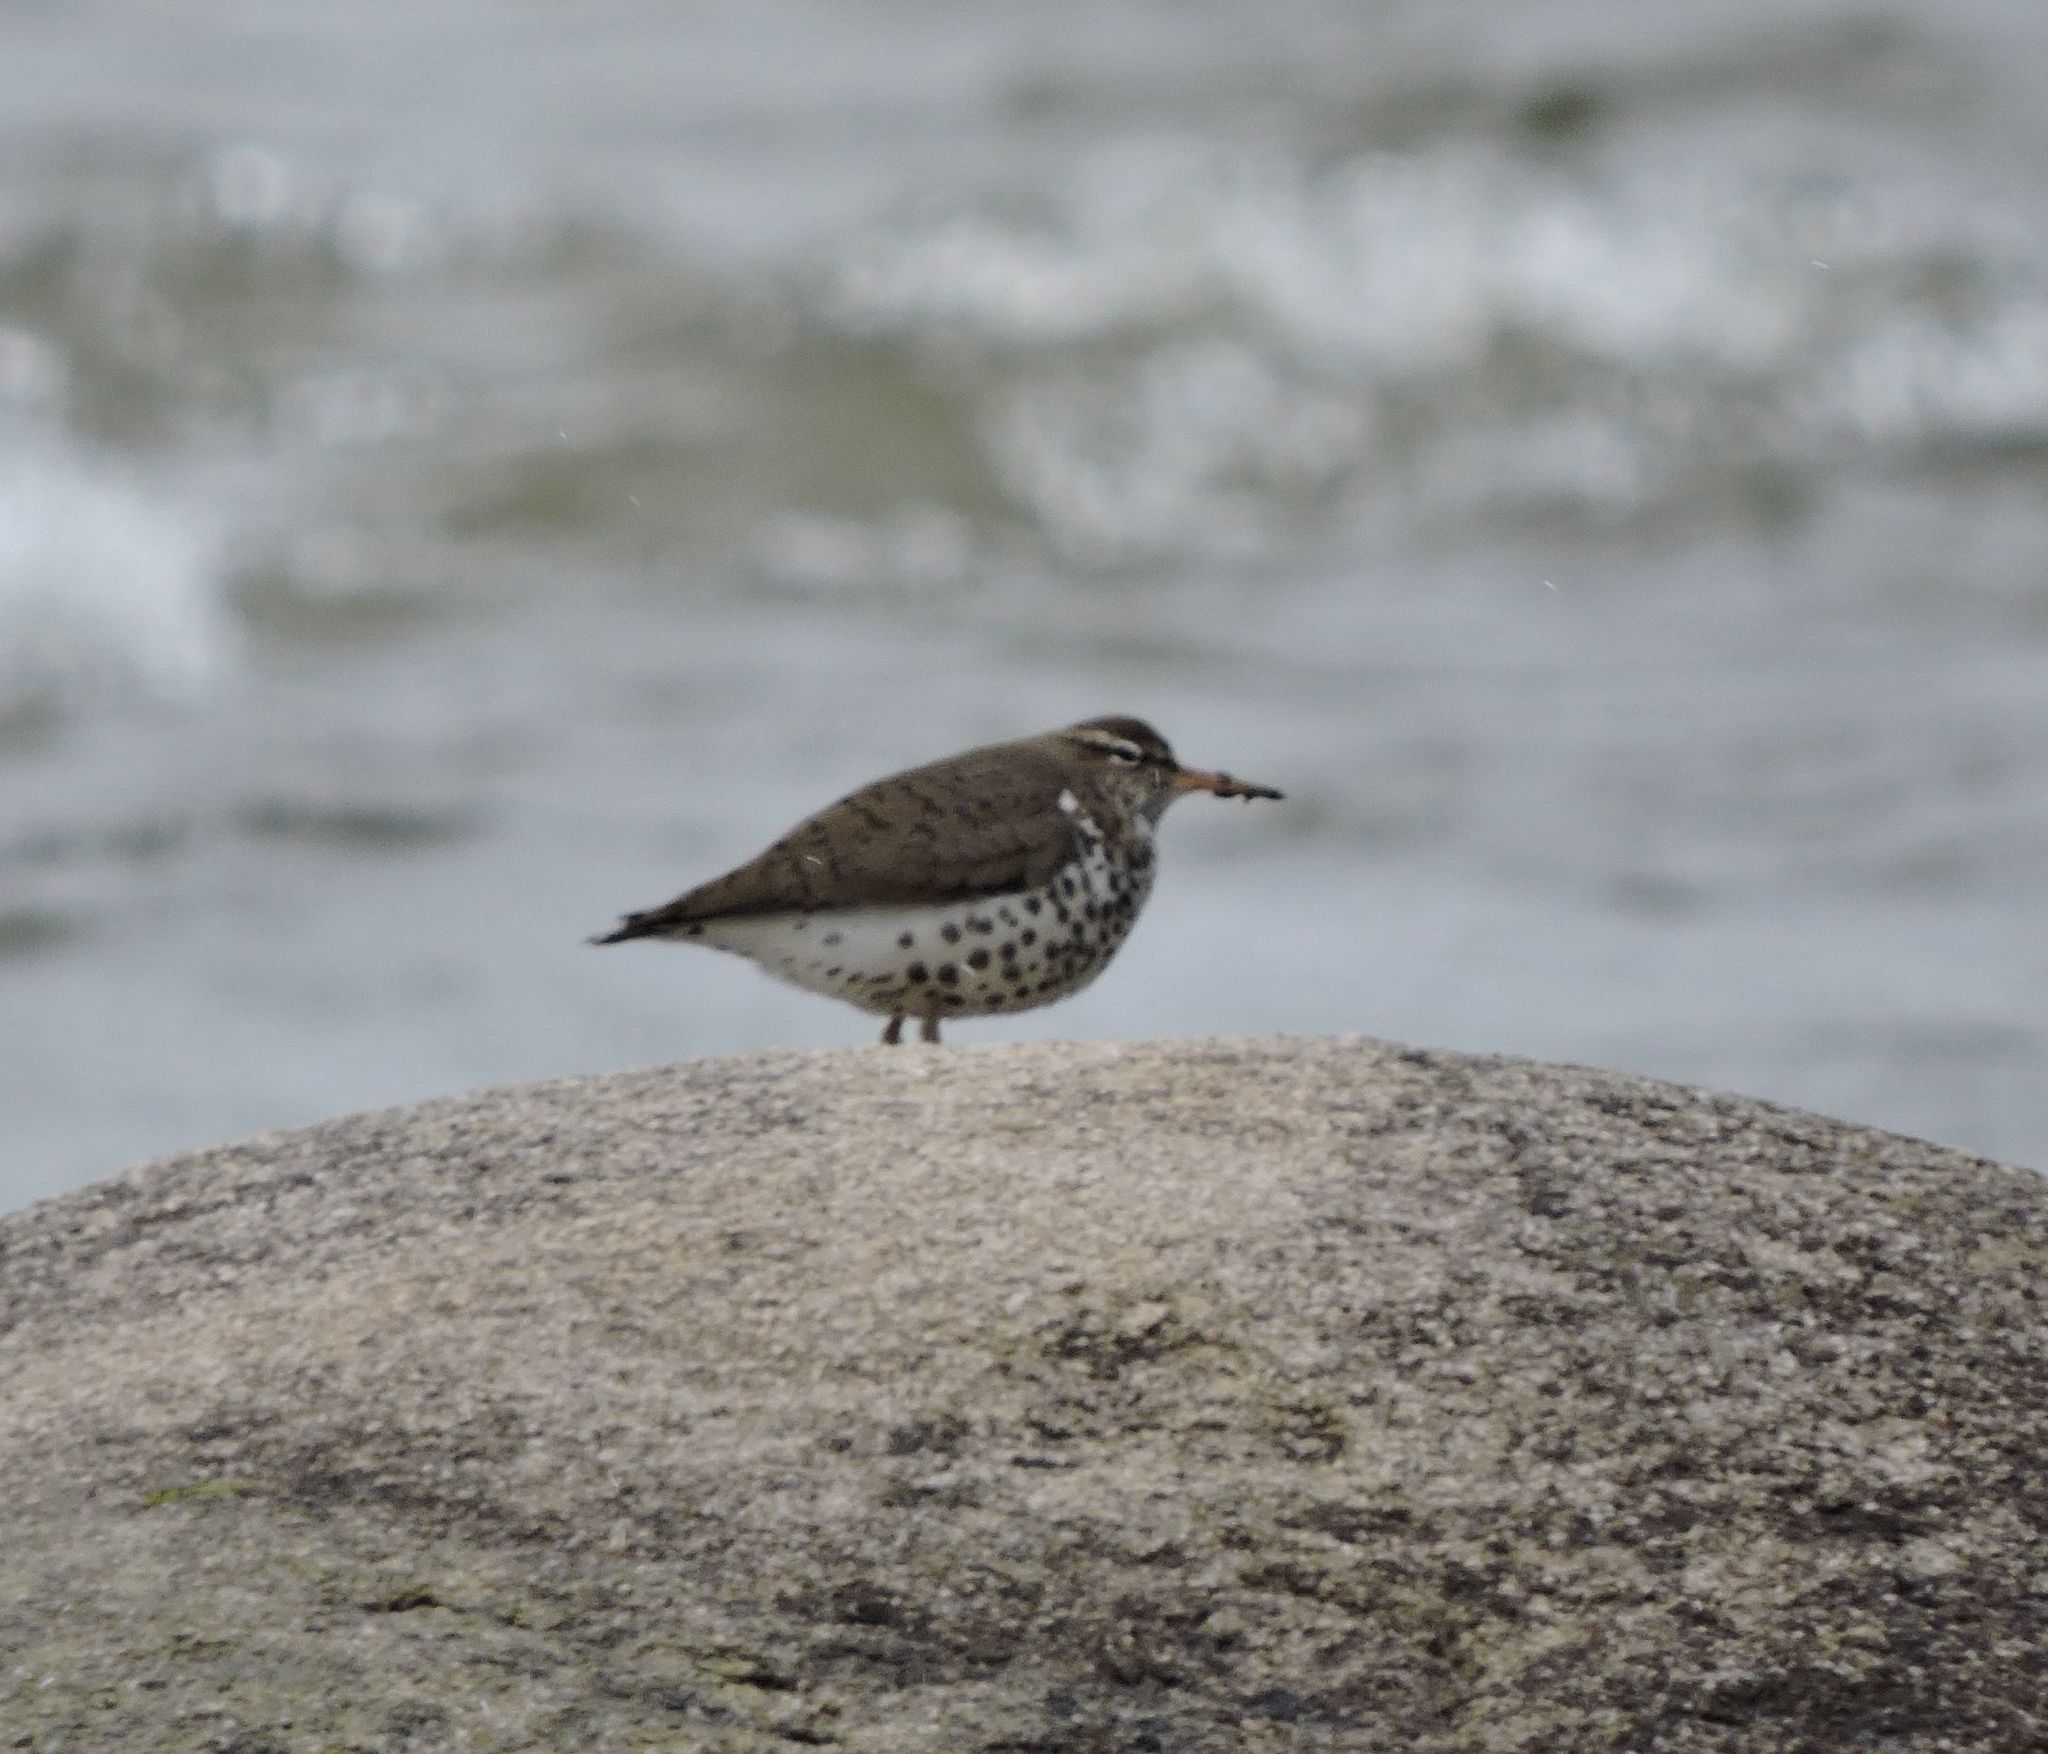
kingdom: Animalia
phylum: Chordata
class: Aves
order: Charadriiformes
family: Scolopacidae
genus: Actitis
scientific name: Actitis macularius
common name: Spotted sandpiper
